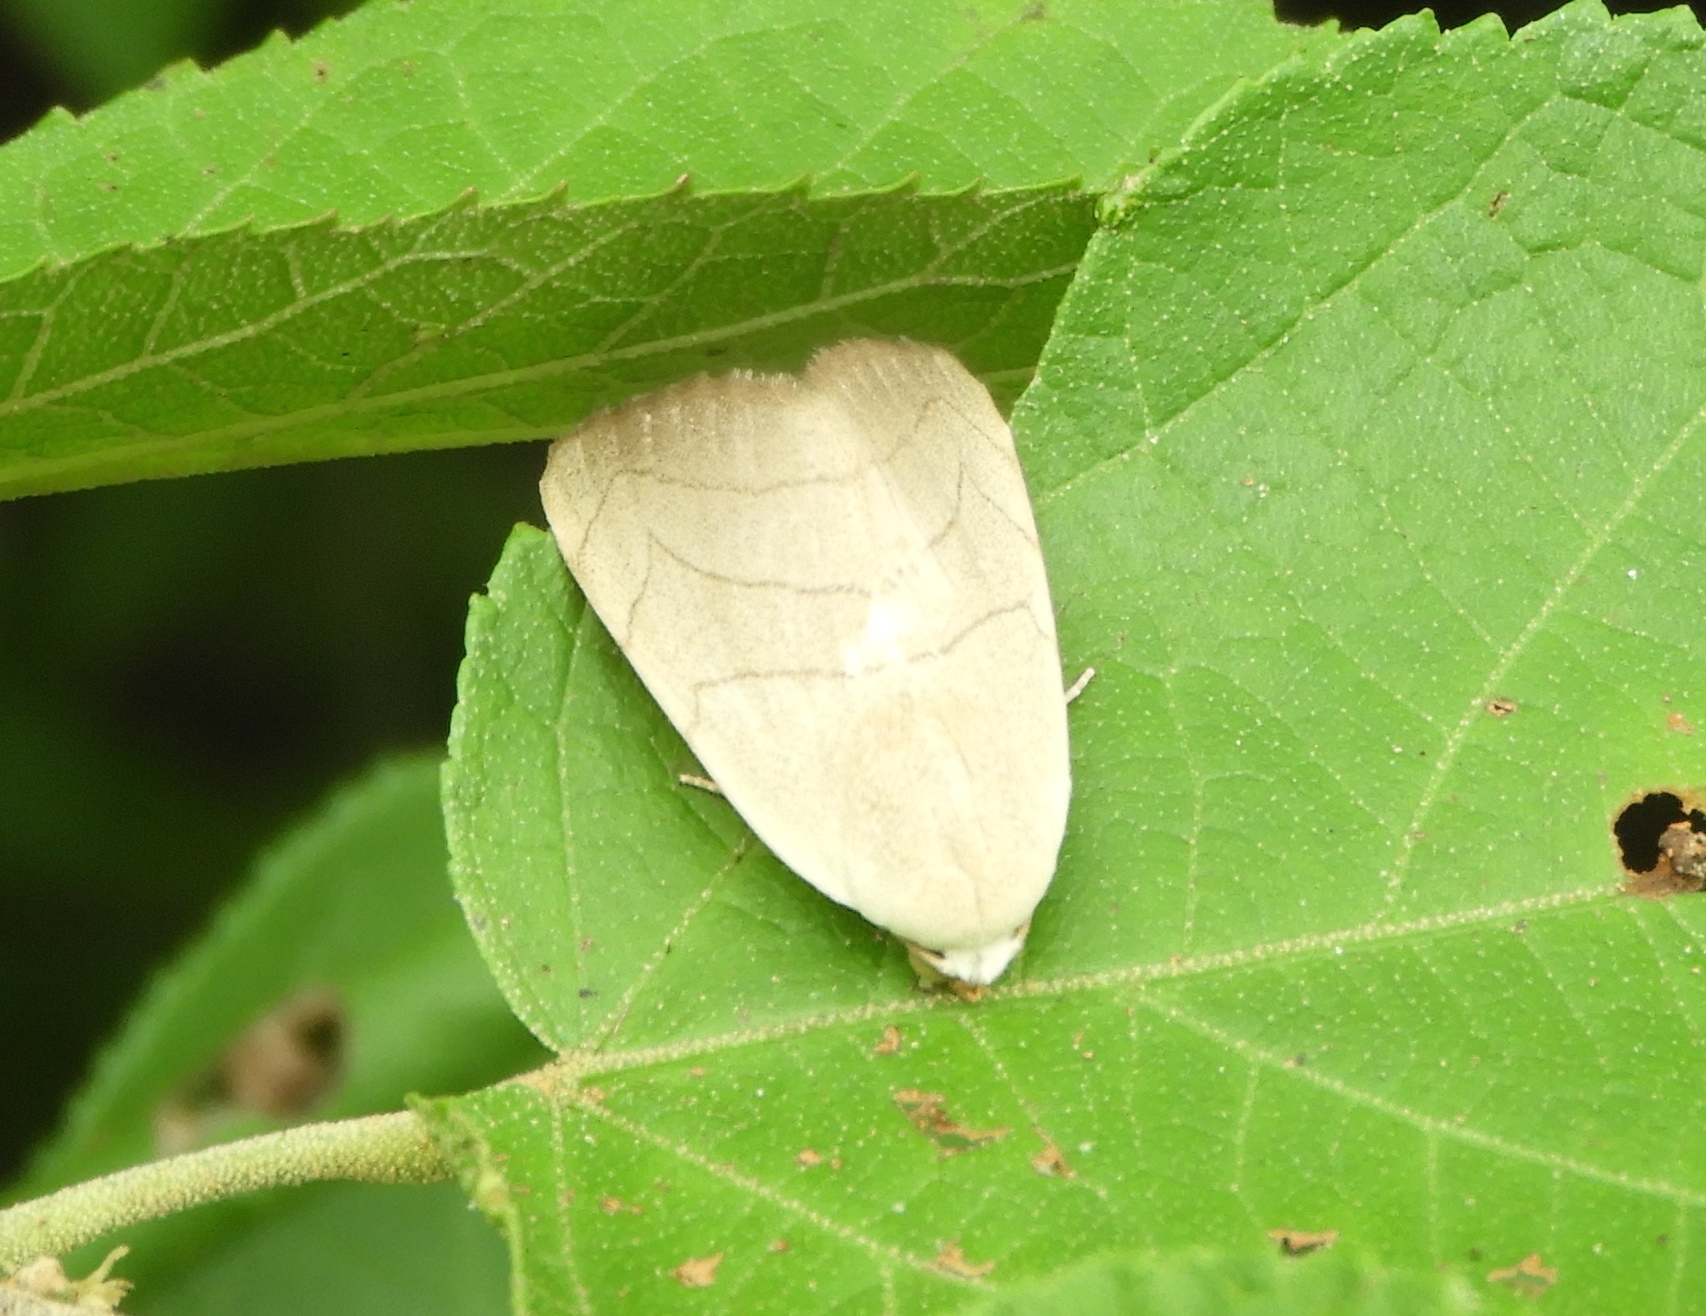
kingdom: Animalia
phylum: Arthropoda
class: Insecta
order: Lepidoptera
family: Noctuidae
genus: Bagisara
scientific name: Bagisara buxea
